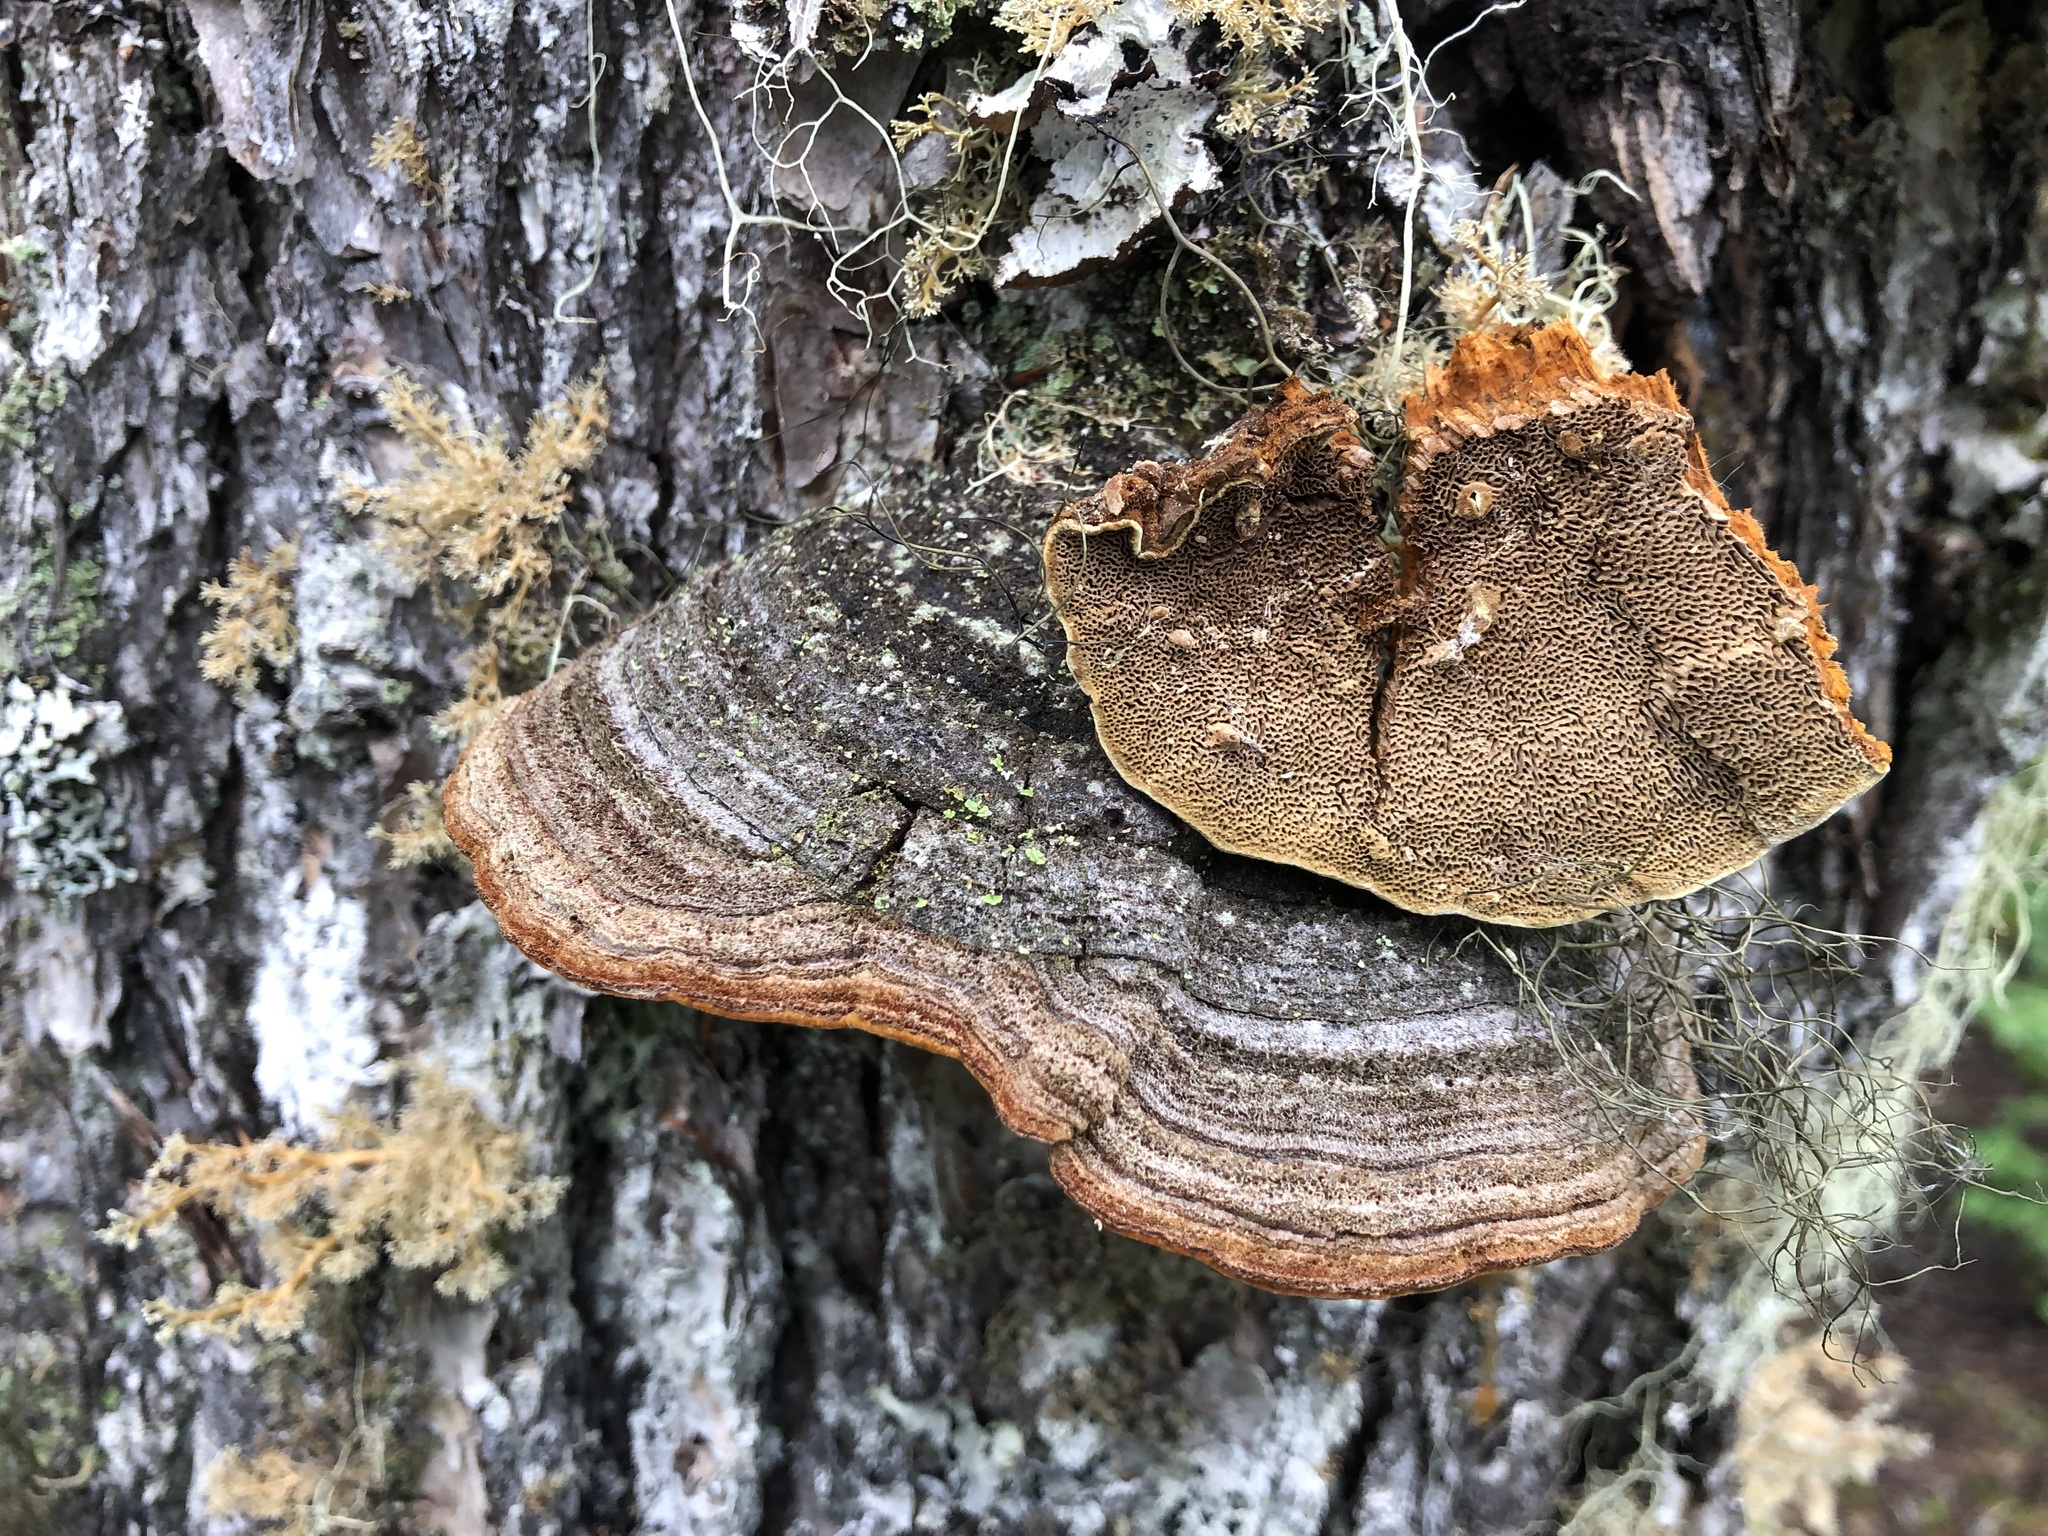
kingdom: Fungi
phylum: Basidiomycota
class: Agaricomycetes
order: Hymenochaetales
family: Hymenochaetaceae
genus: Porodaedalea
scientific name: Porodaedalea pini
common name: Pine bracket
